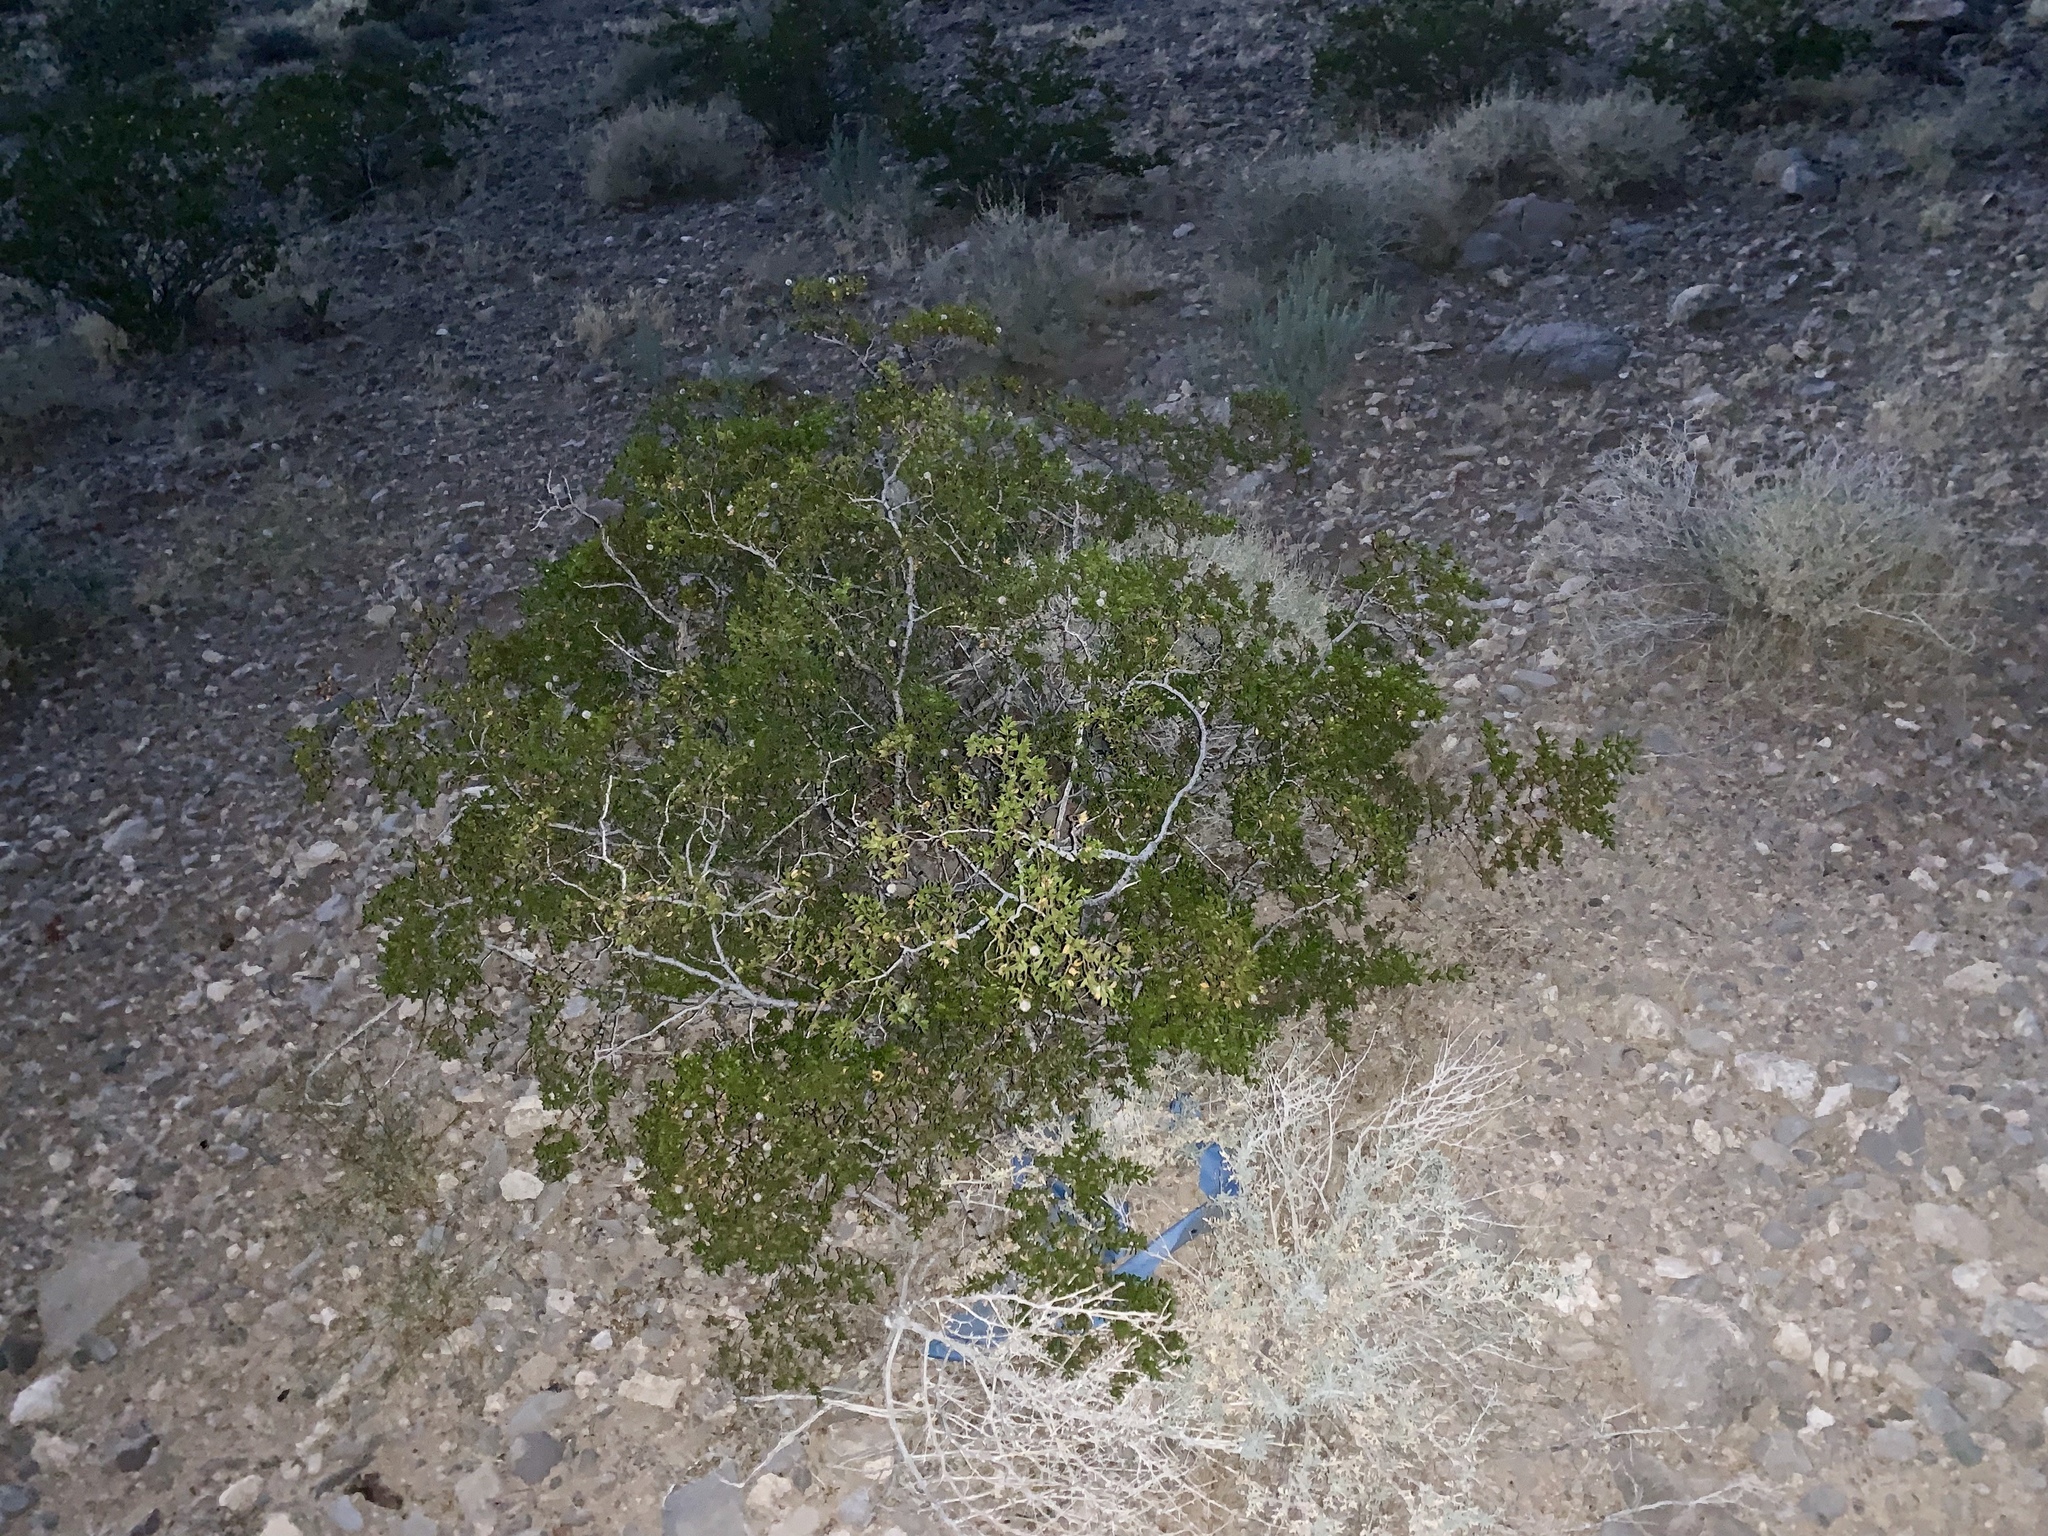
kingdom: Plantae
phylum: Tracheophyta
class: Magnoliopsida
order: Zygophyllales
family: Zygophyllaceae
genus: Larrea
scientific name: Larrea tridentata
